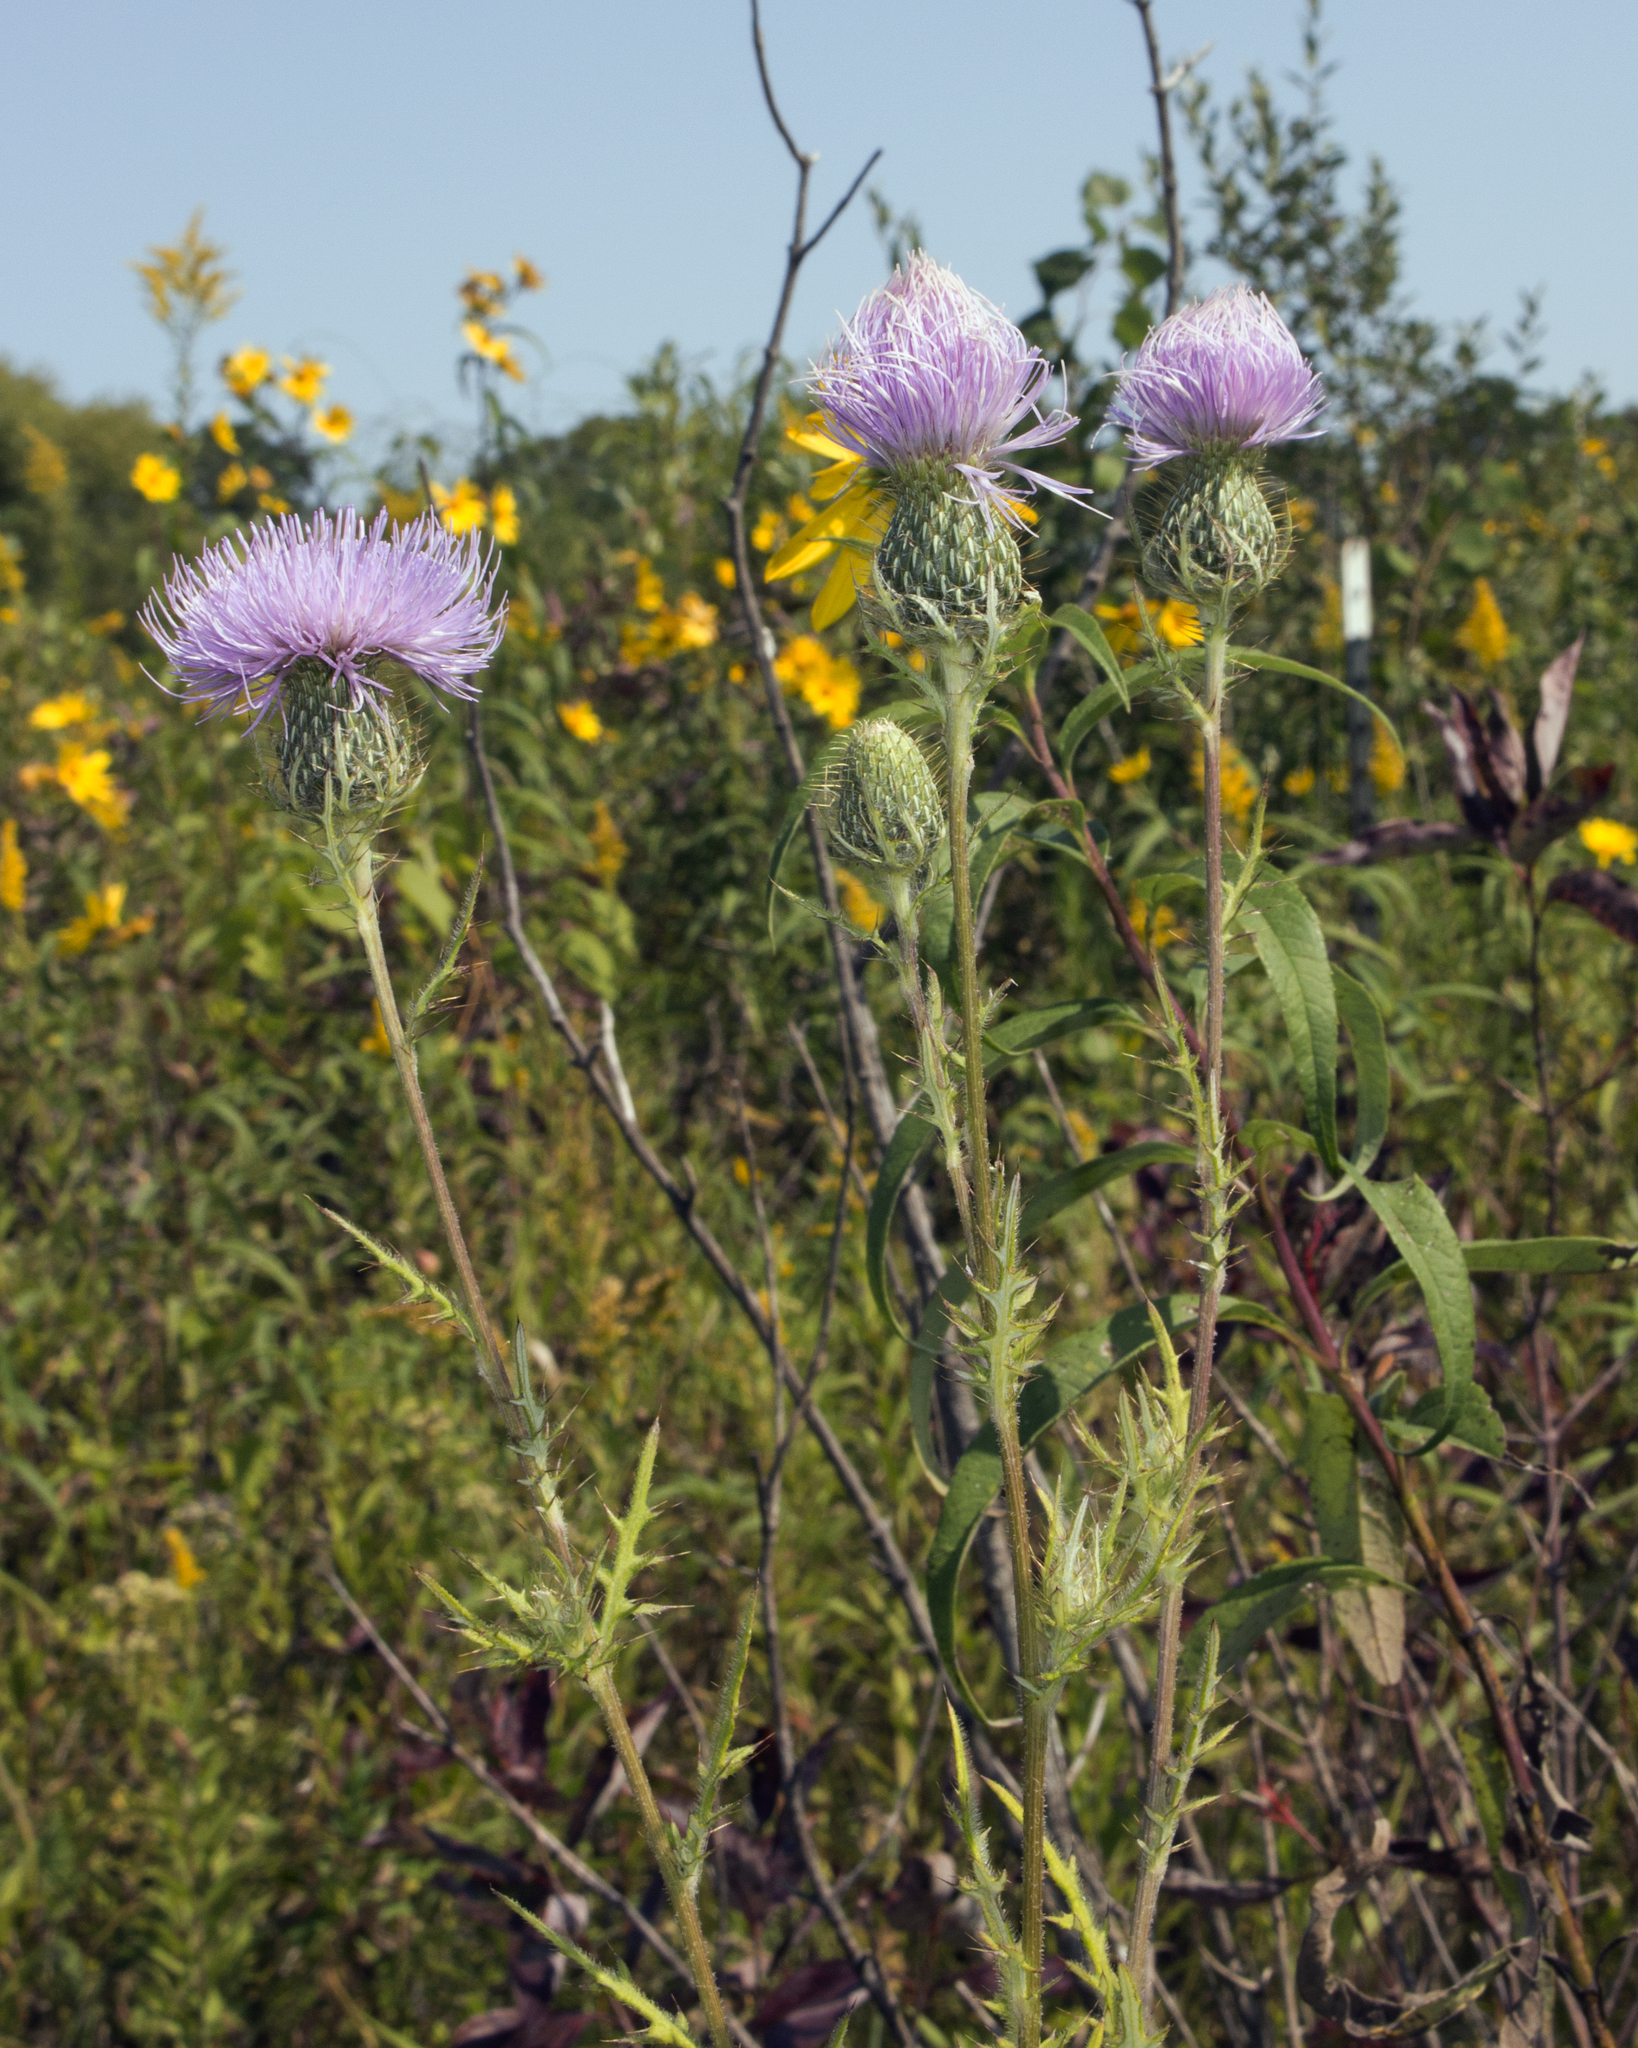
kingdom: Plantae
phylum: Tracheophyta
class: Magnoliopsida
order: Asterales
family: Asteraceae
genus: Cirsium
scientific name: Cirsium discolor
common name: Field thistle
